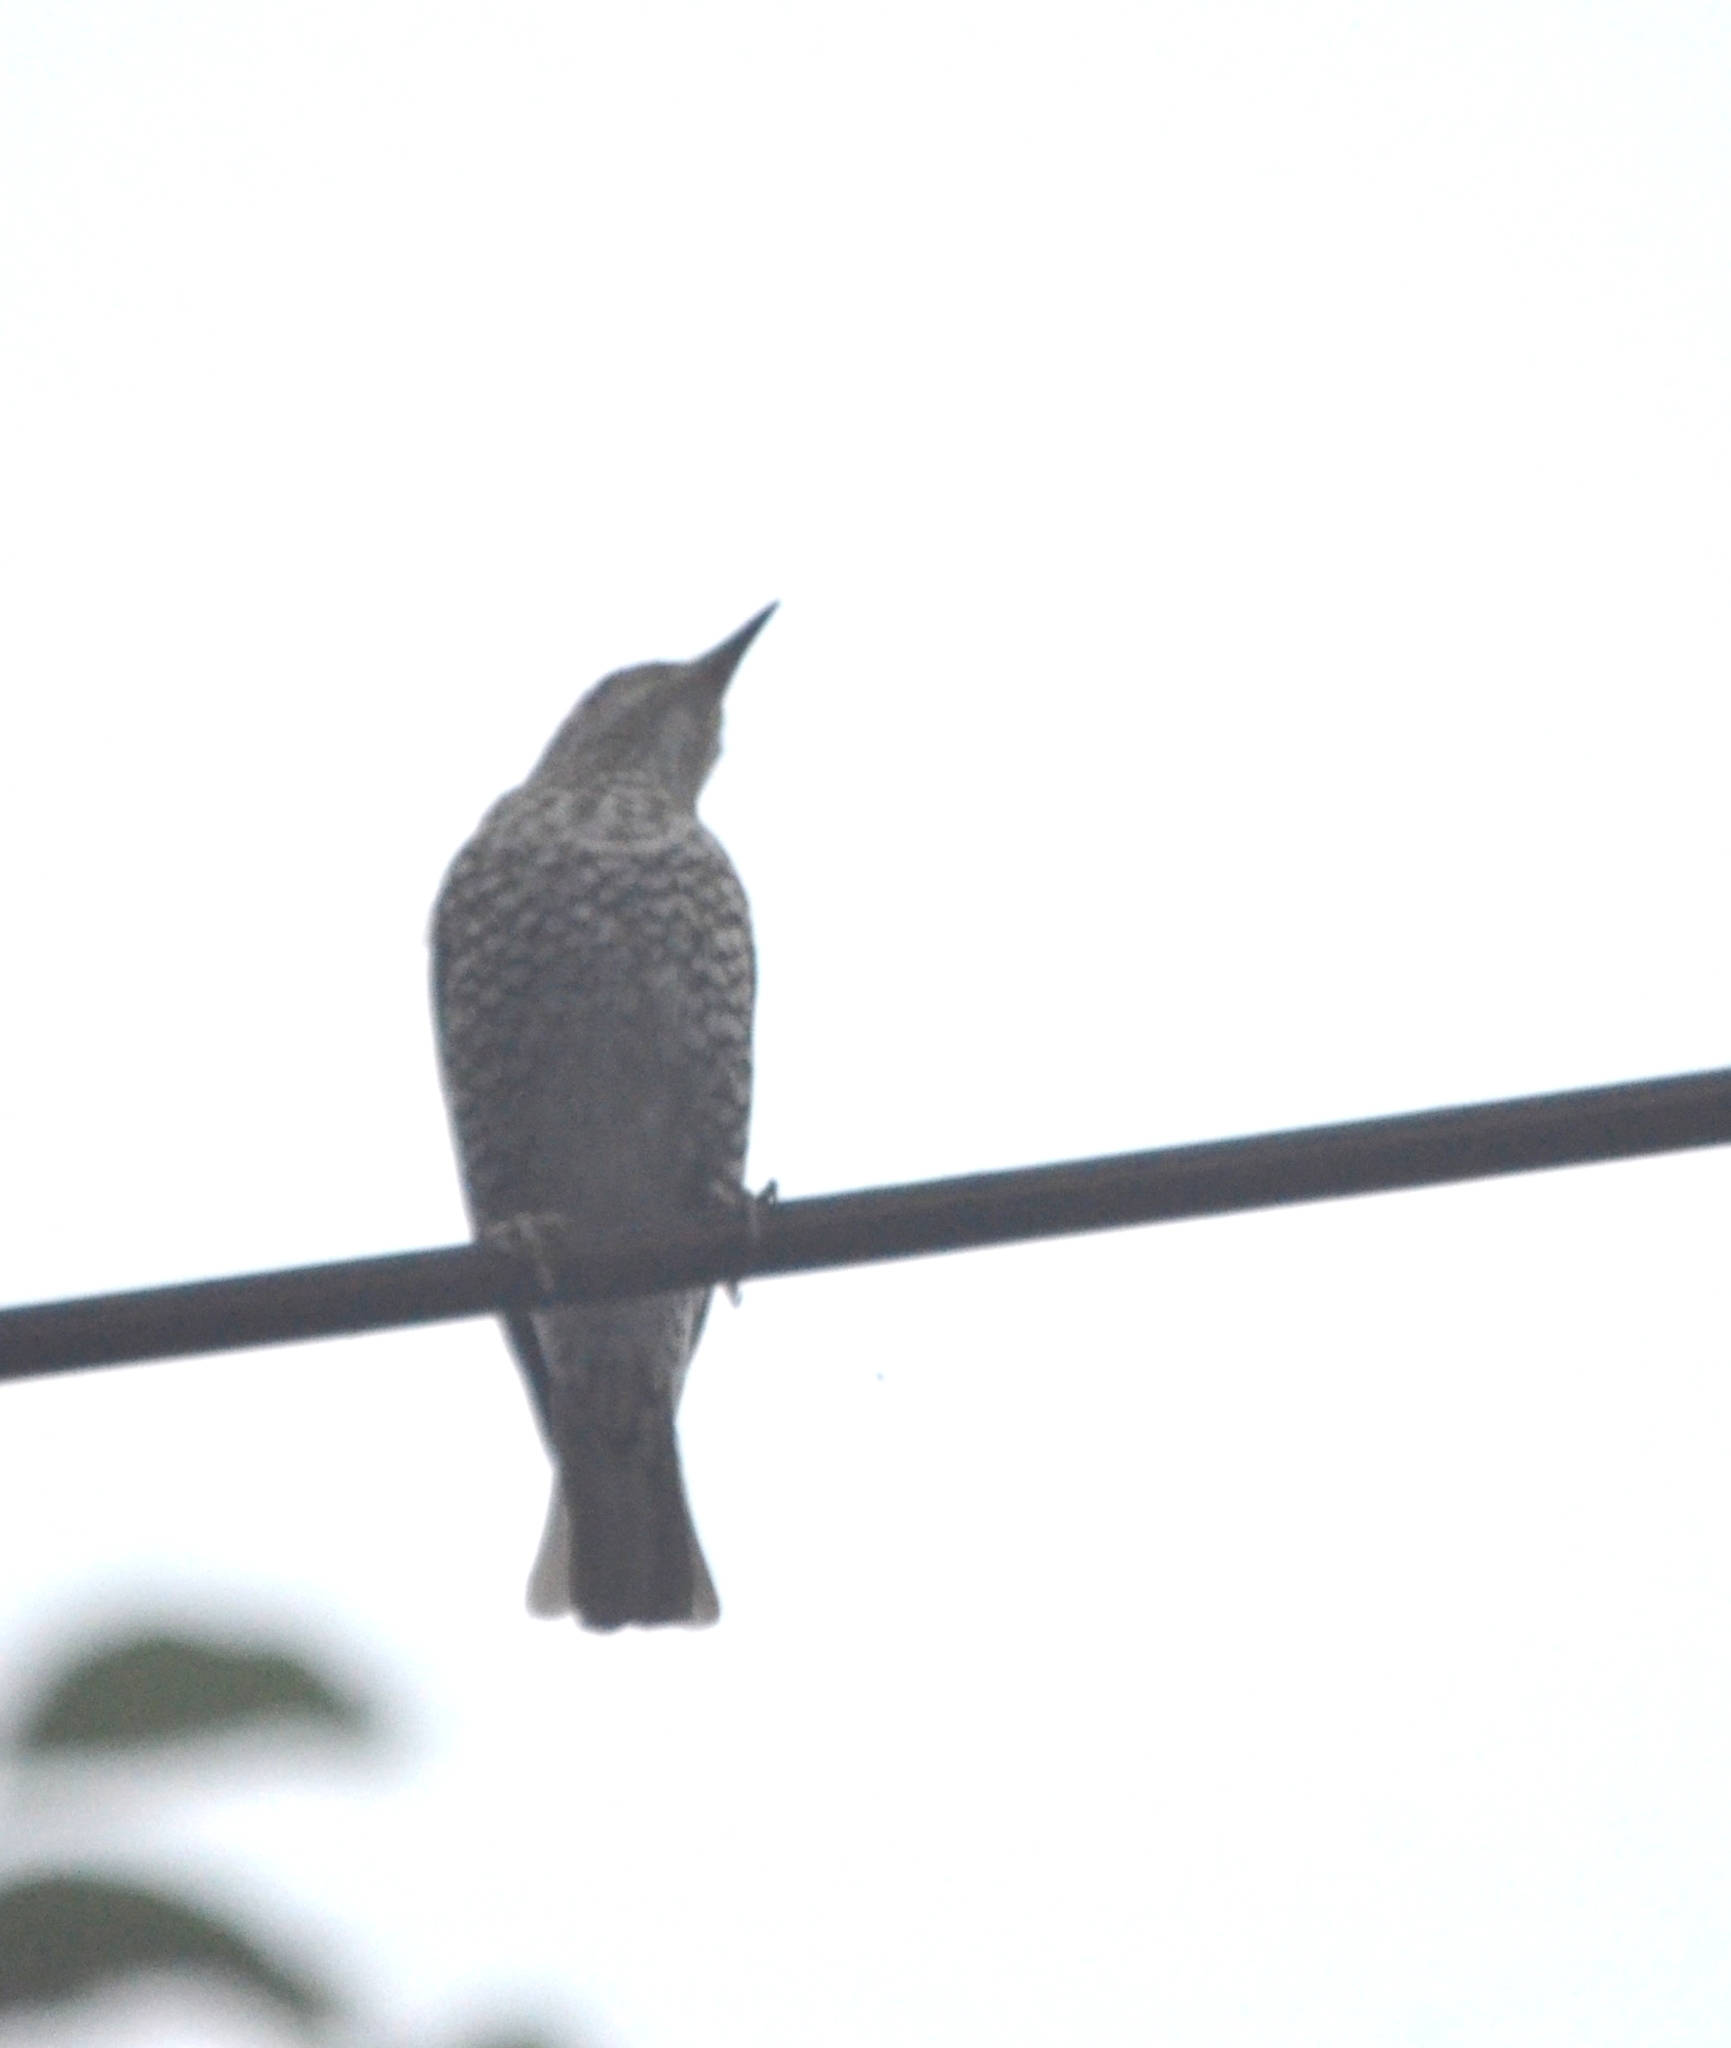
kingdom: Animalia
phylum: Chordata
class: Aves
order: Passeriformes
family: Muscicapidae
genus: Monticola
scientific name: Monticola solitarius
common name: Blue rock thrush
